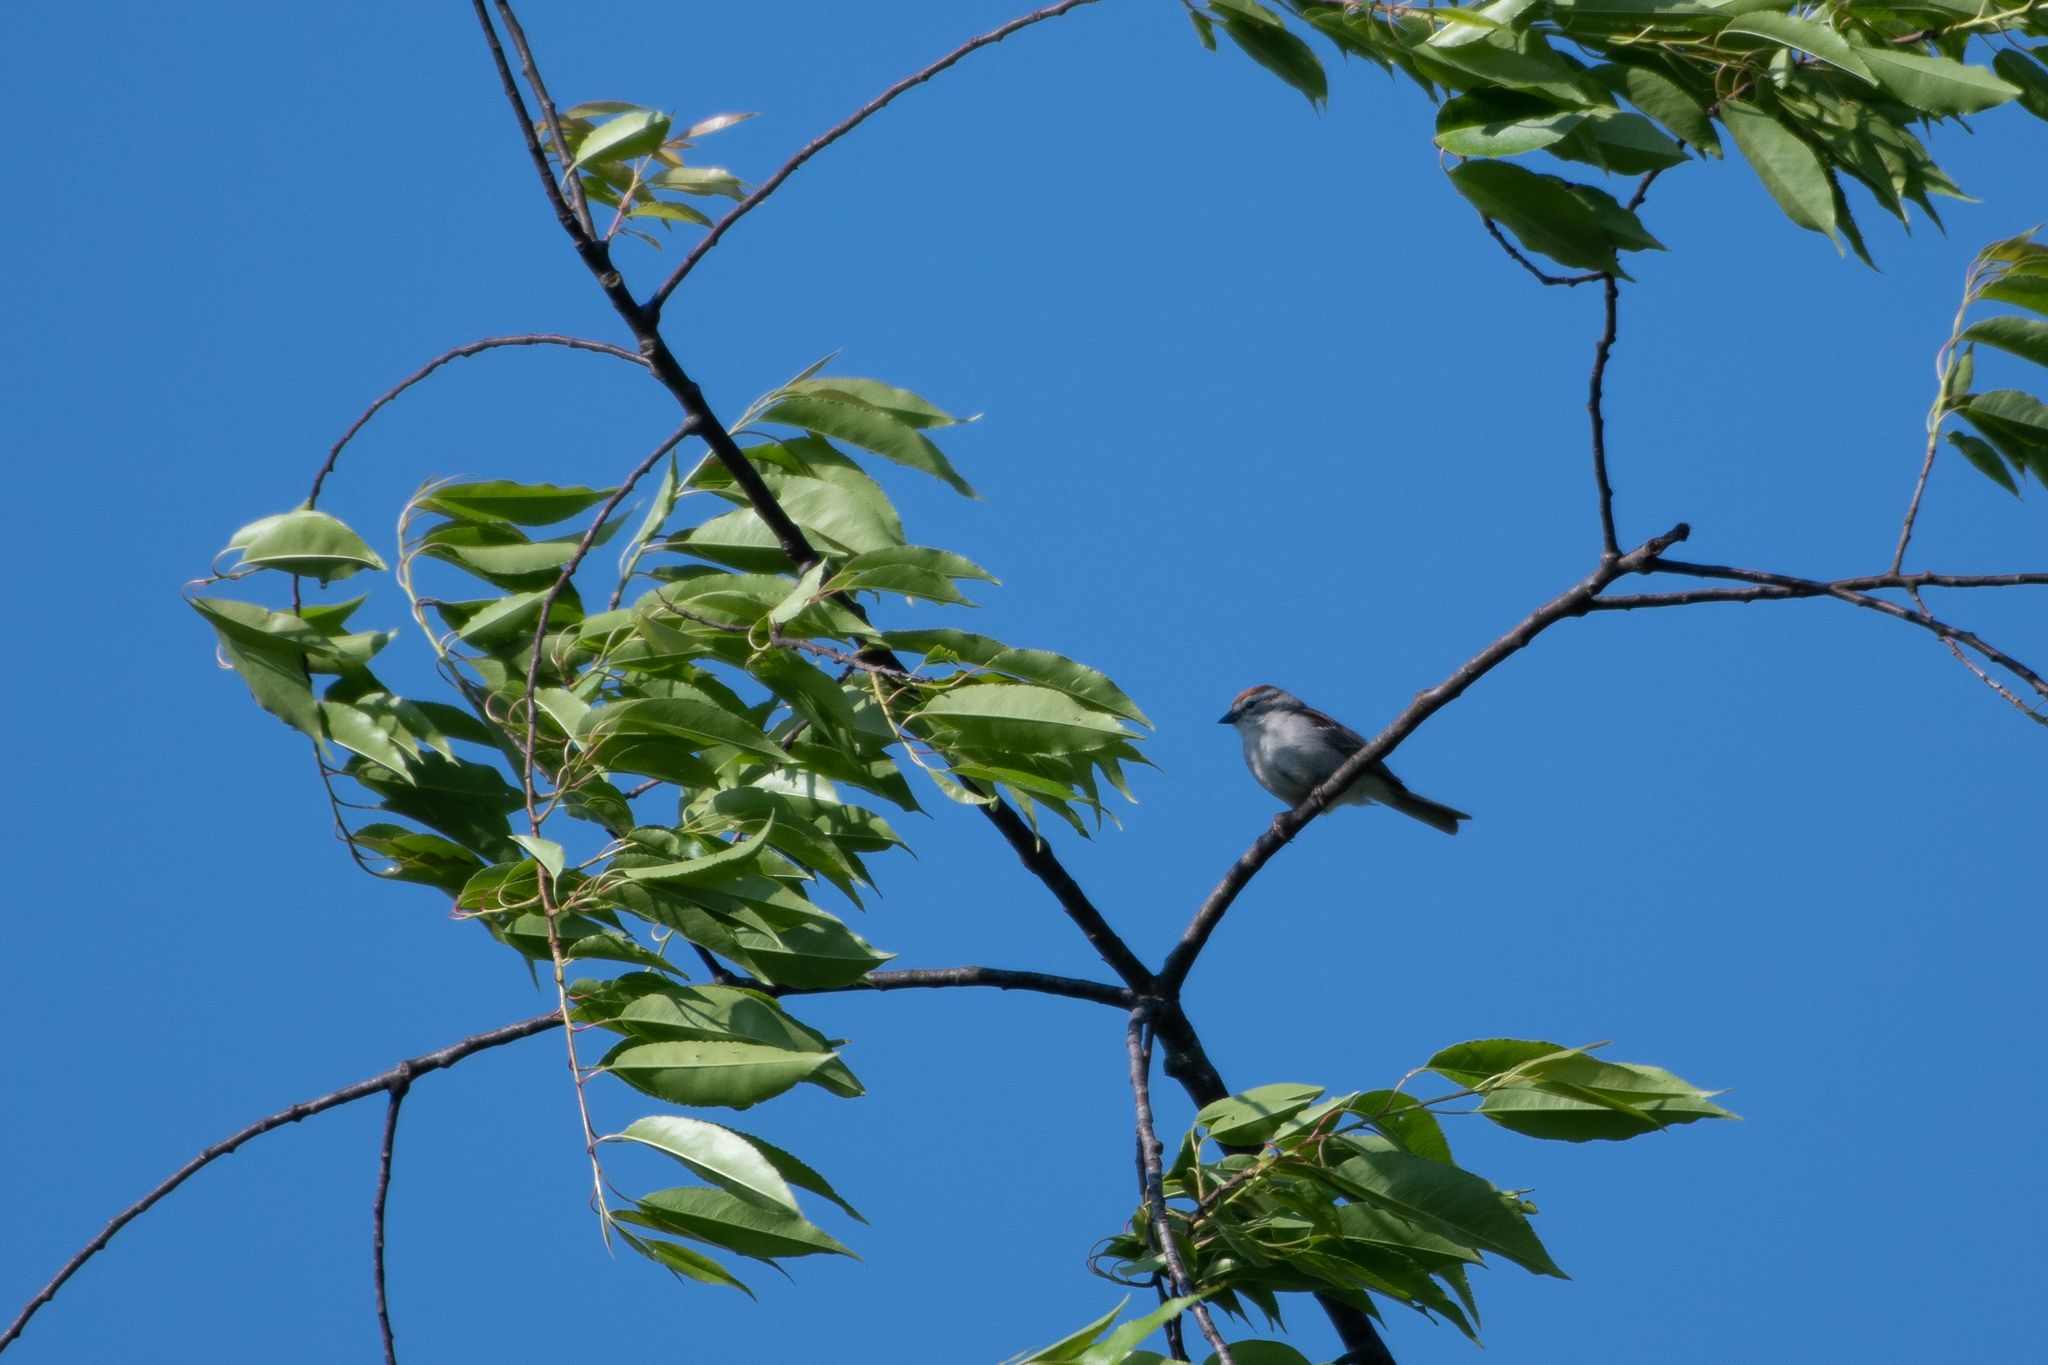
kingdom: Animalia
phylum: Chordata
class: Aves
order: Passeriformes
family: Passerellidae
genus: Spizella
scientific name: Spizella passerina
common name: Chipping sparrow
